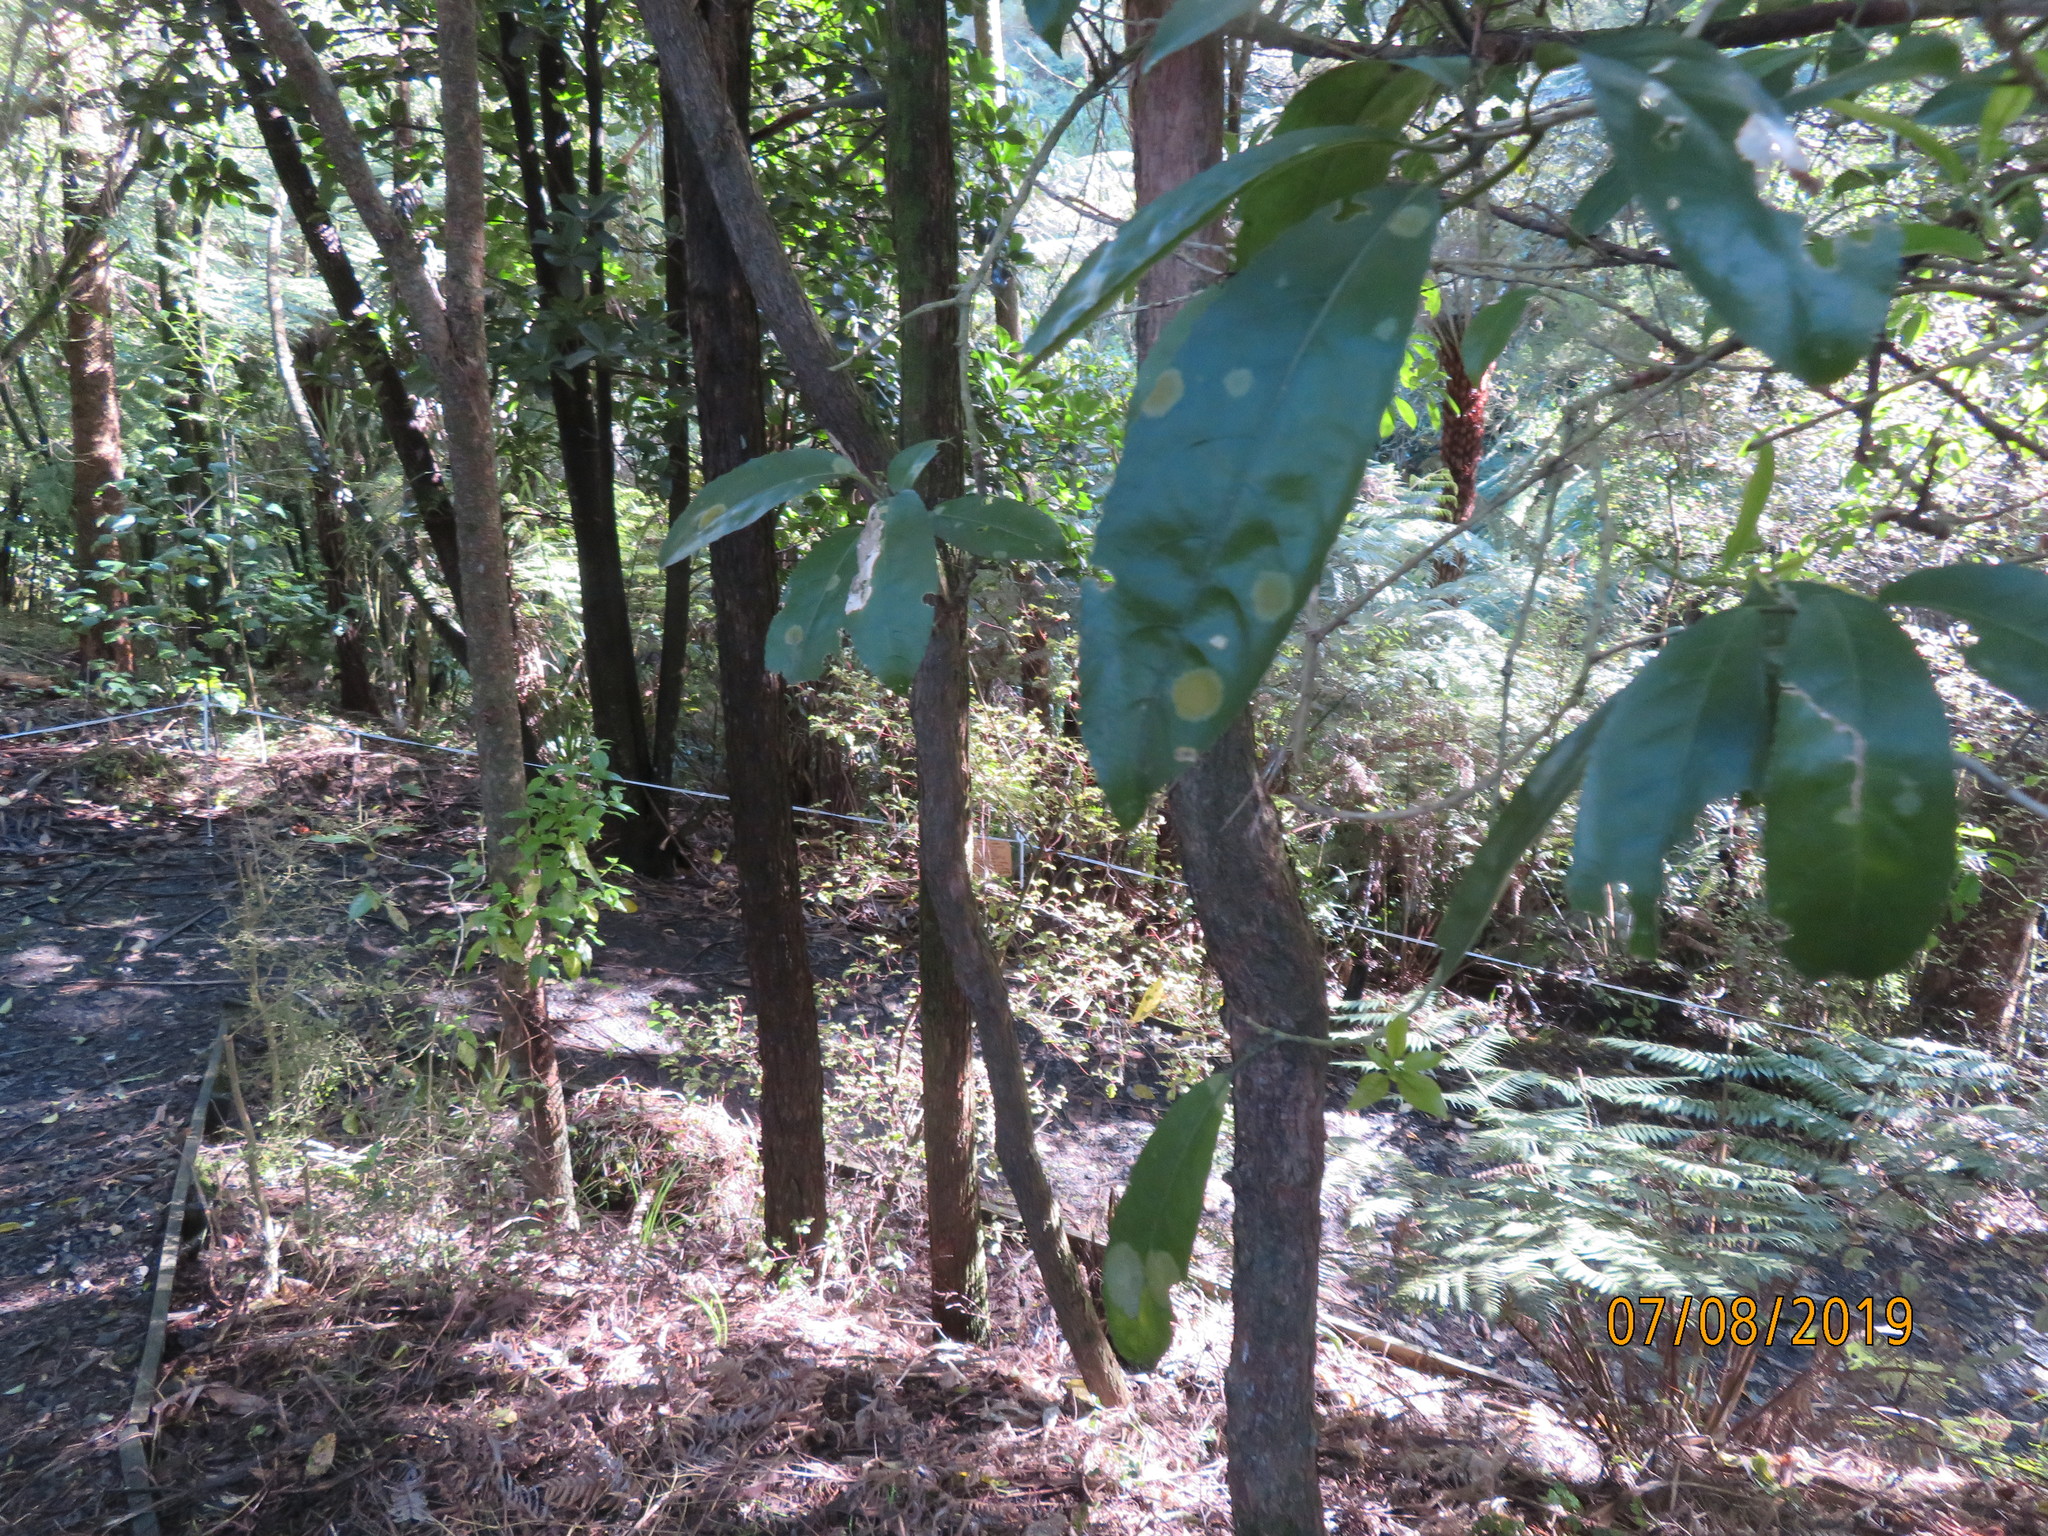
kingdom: Plantae
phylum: Tracheophyta
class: Liliopsida
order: Commelinales
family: Commelinaceae
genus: Tradescantia
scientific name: Tradescantia fluminensis
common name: Wandering-jew
